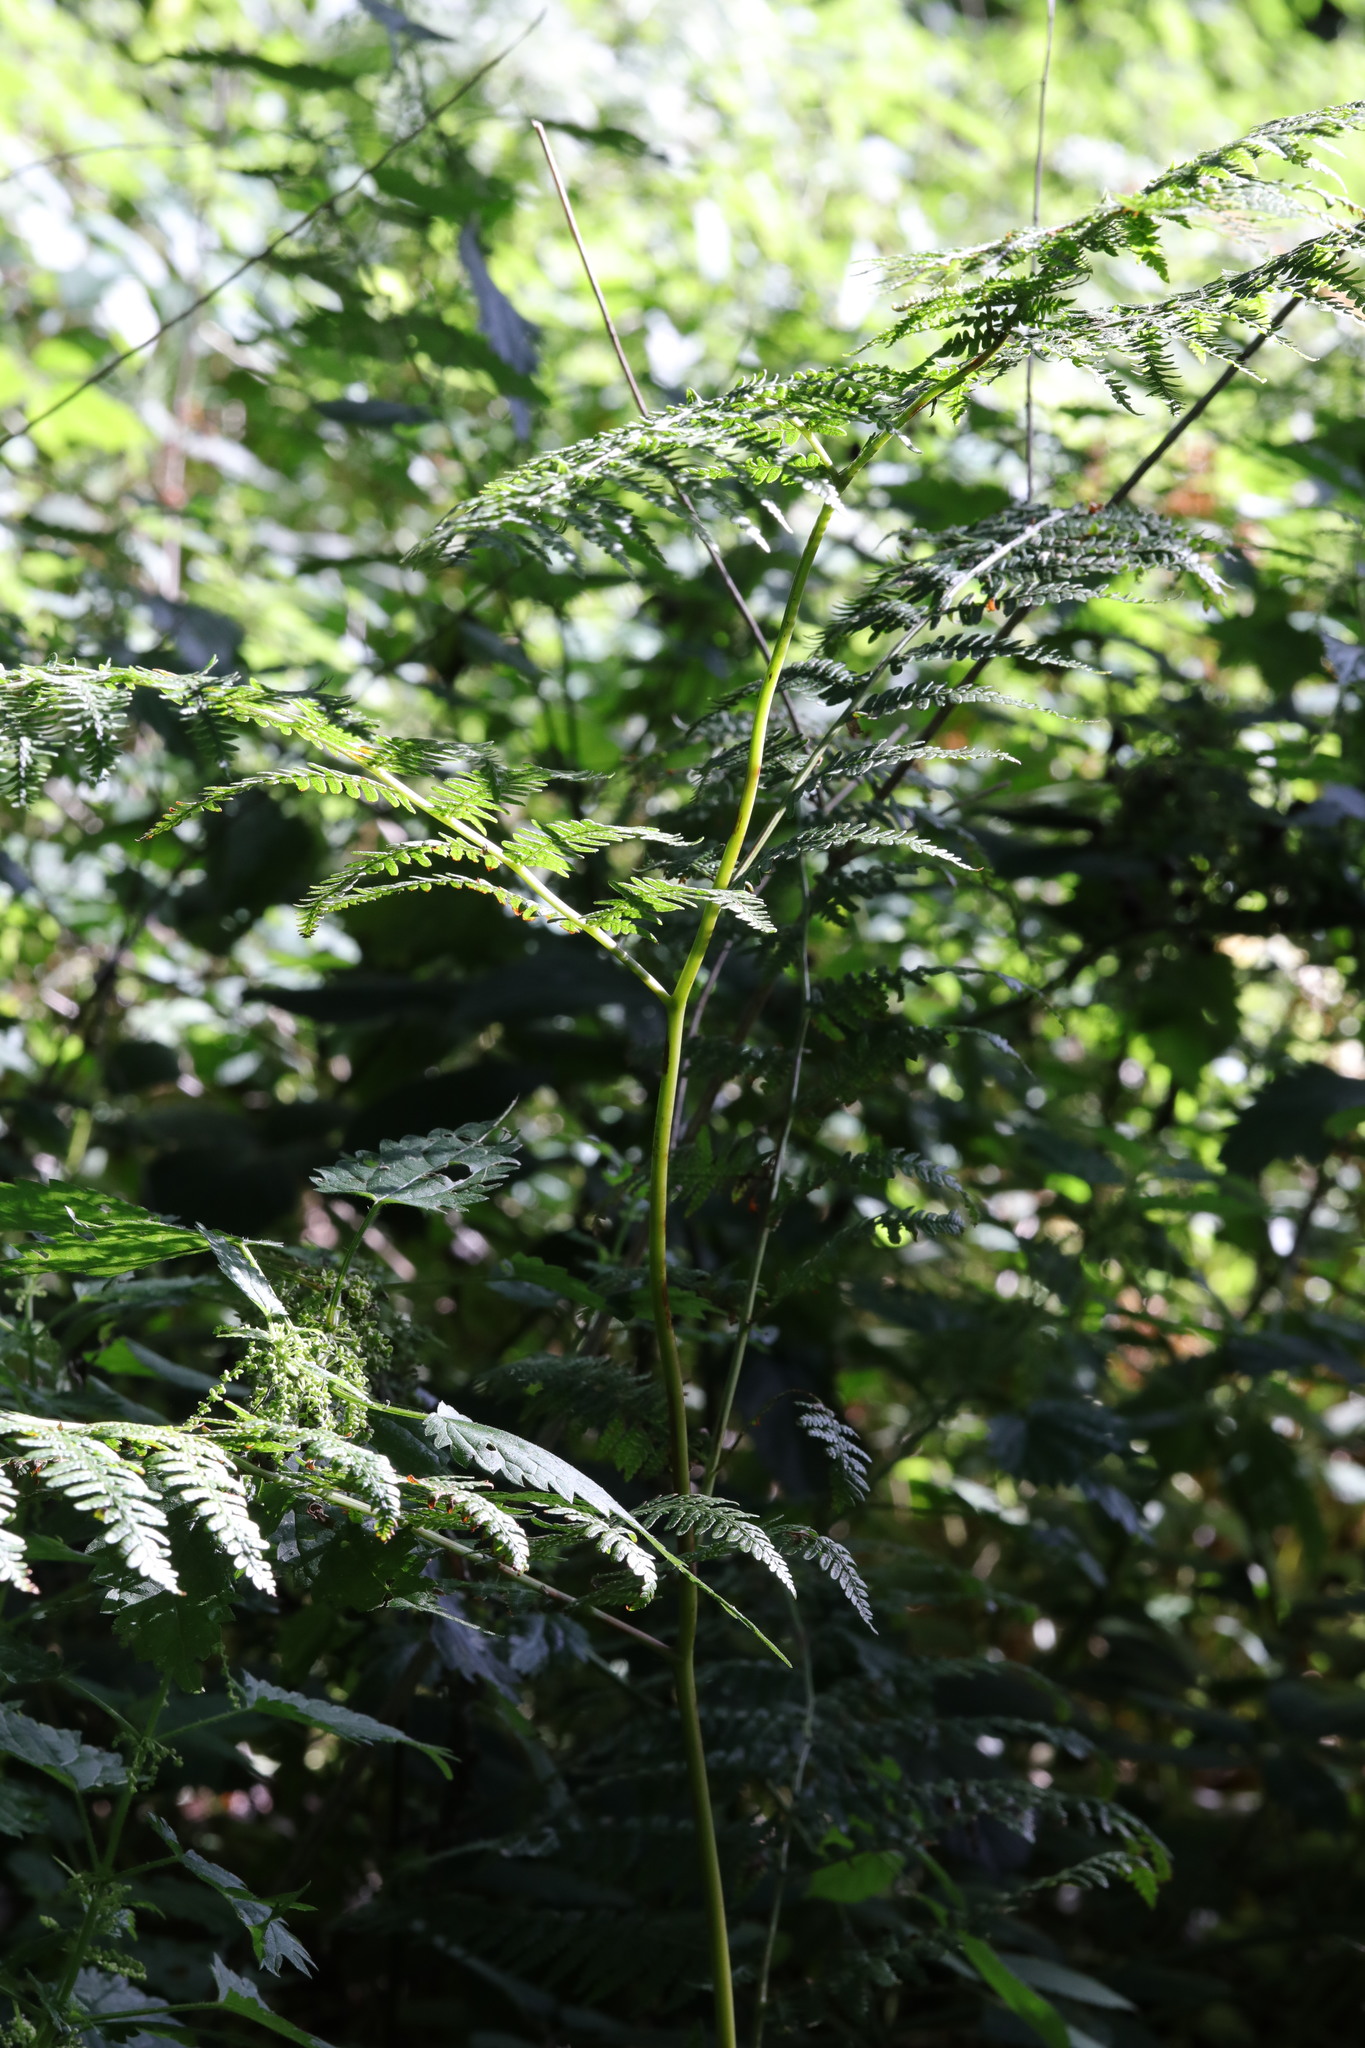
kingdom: Plantae
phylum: Tracheophyta
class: Polypodiopsida
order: Polypodiales
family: Dennstaedtiaceae
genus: Pteridium
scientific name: Pteridium aquilinum
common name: Bracken
